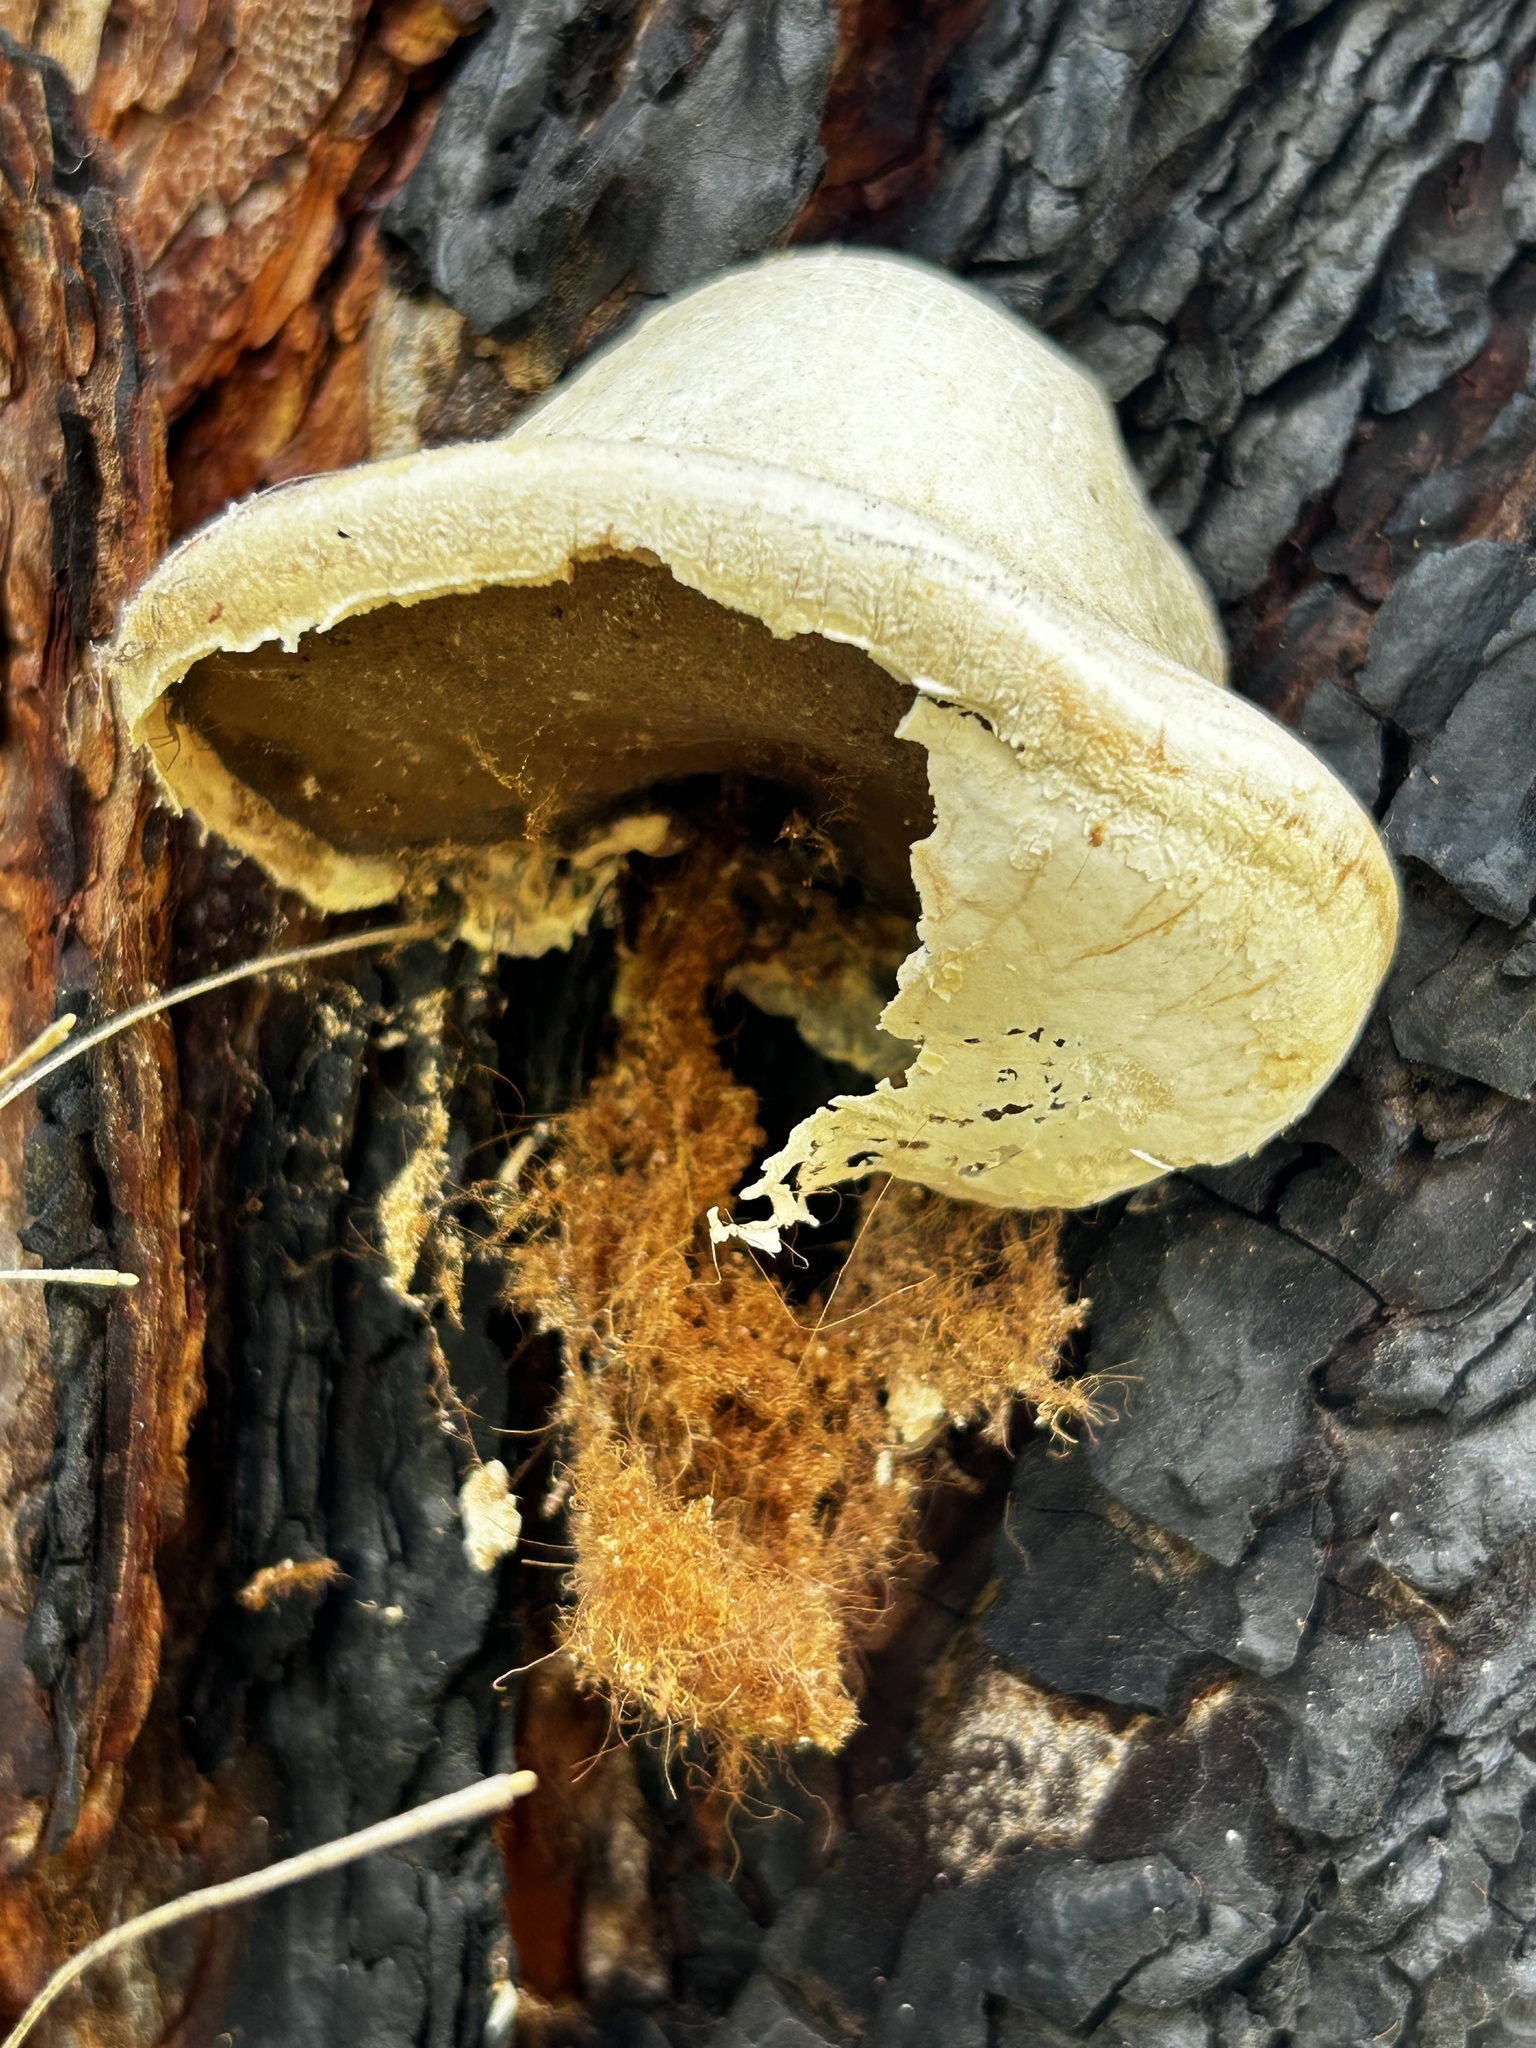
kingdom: Fungi
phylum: Basidiomycota
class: Agaricomycetes
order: Polyporales
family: Polyporaceae
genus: Cryptoporus
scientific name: Cryptoporus volvatus
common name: Veiled polypore
